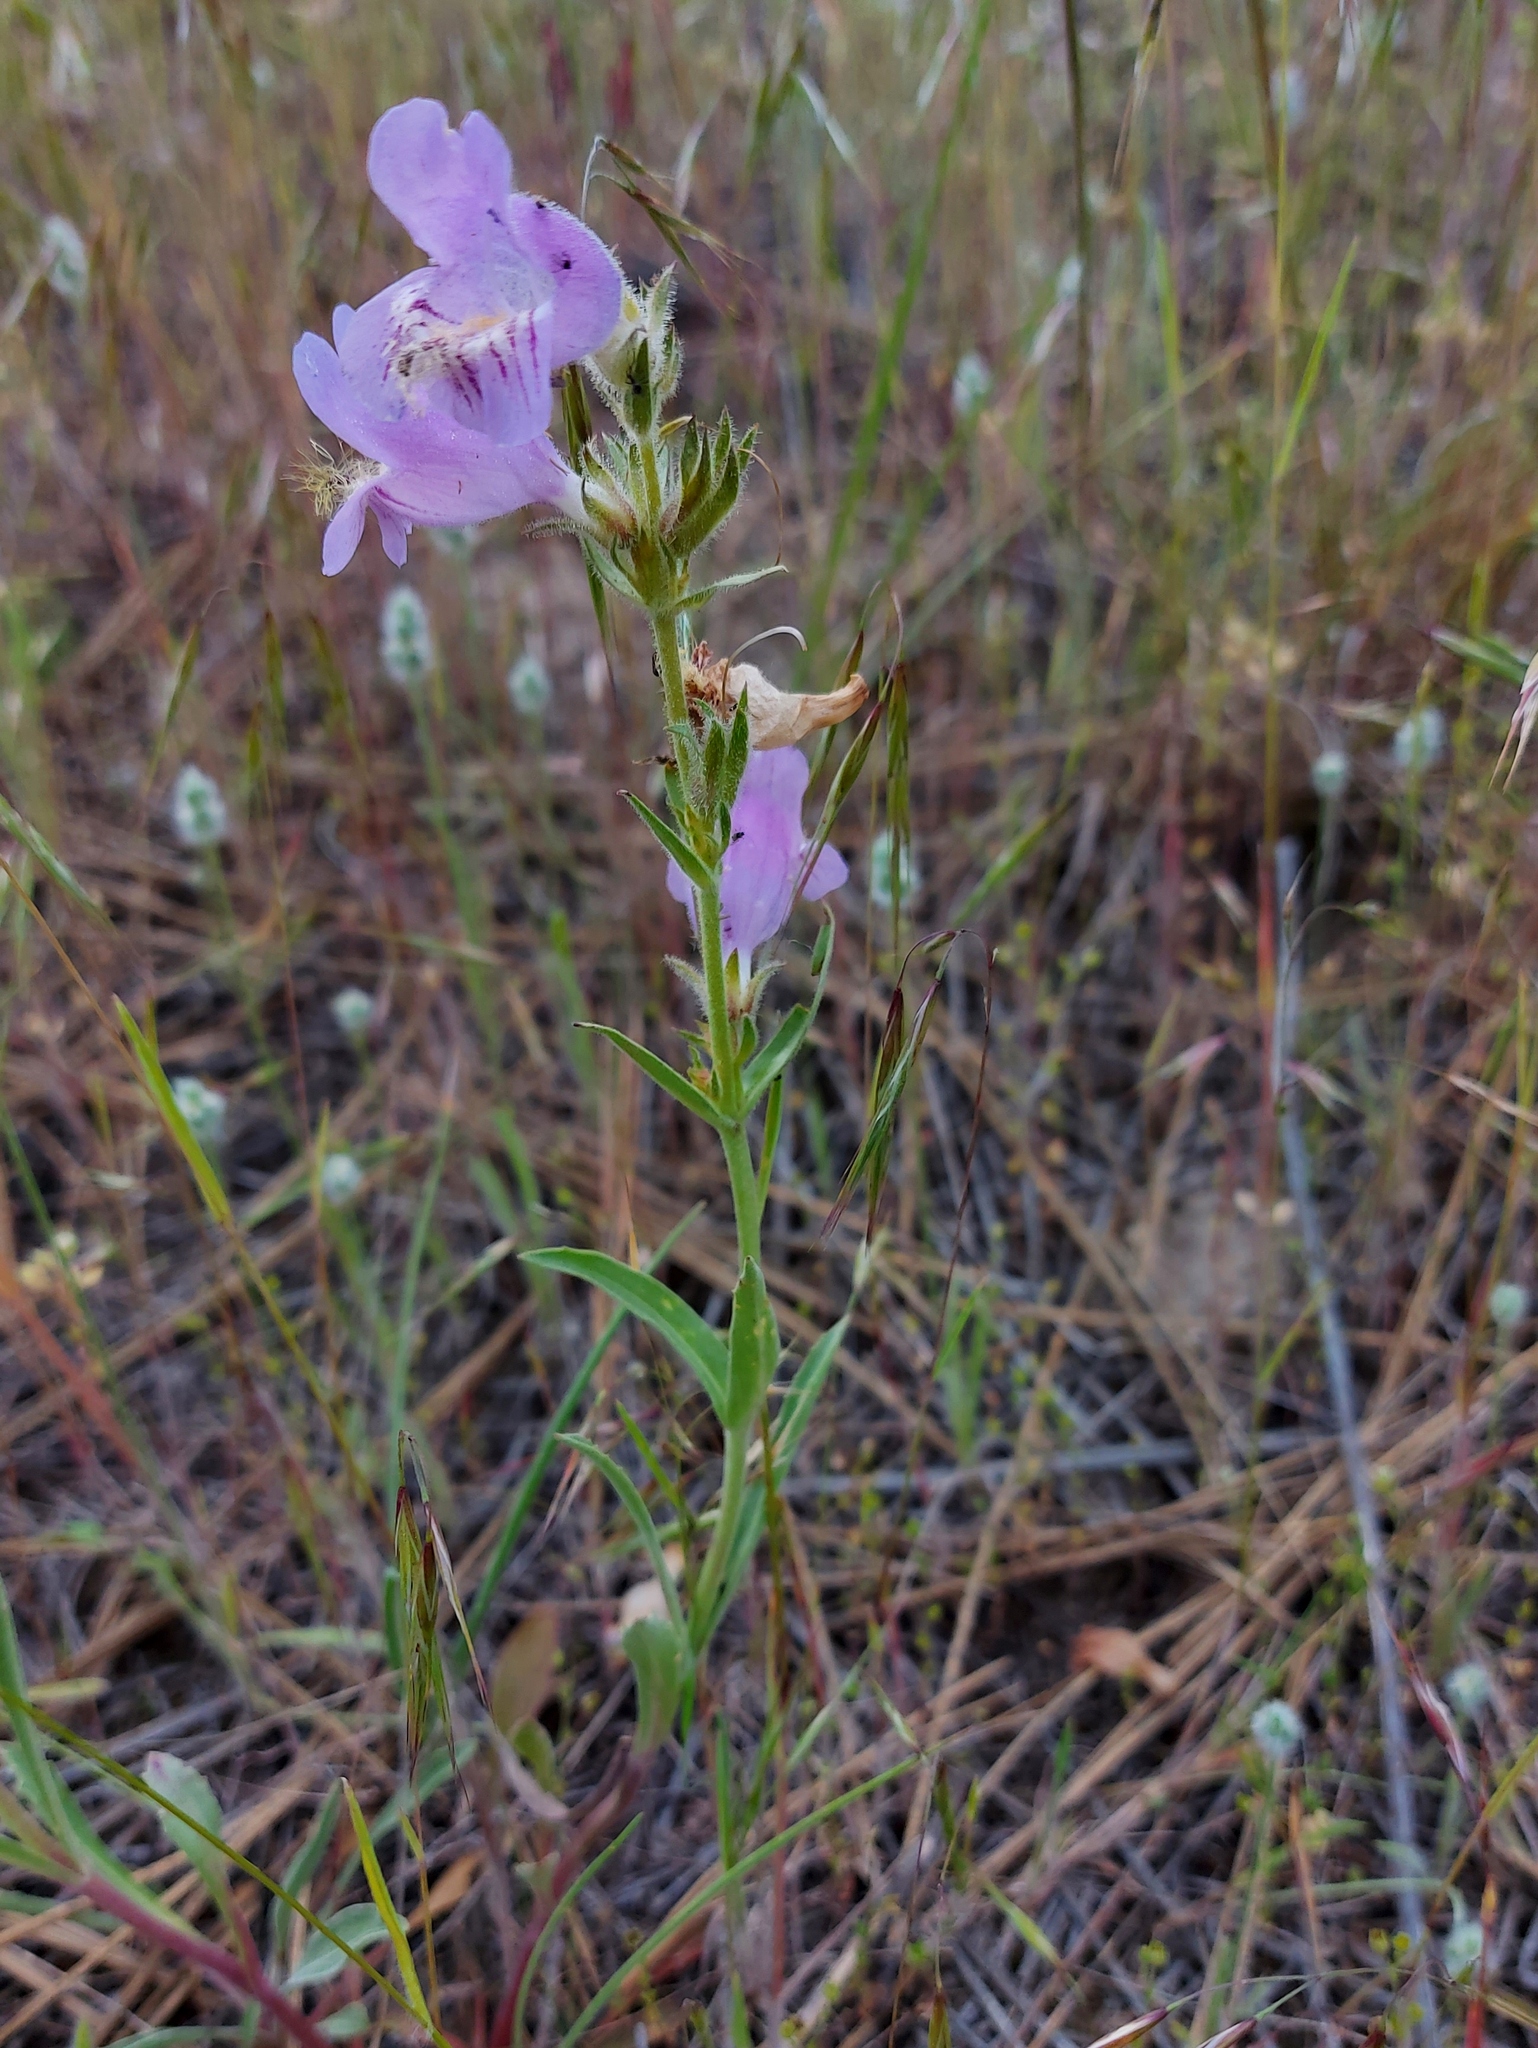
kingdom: Plantae
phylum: Tracheophyta
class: Magnoliopsida
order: Lamiales
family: Plantaginaceae
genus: Penstemon
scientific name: Penstemon eriantherus
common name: Crested beardtongue
